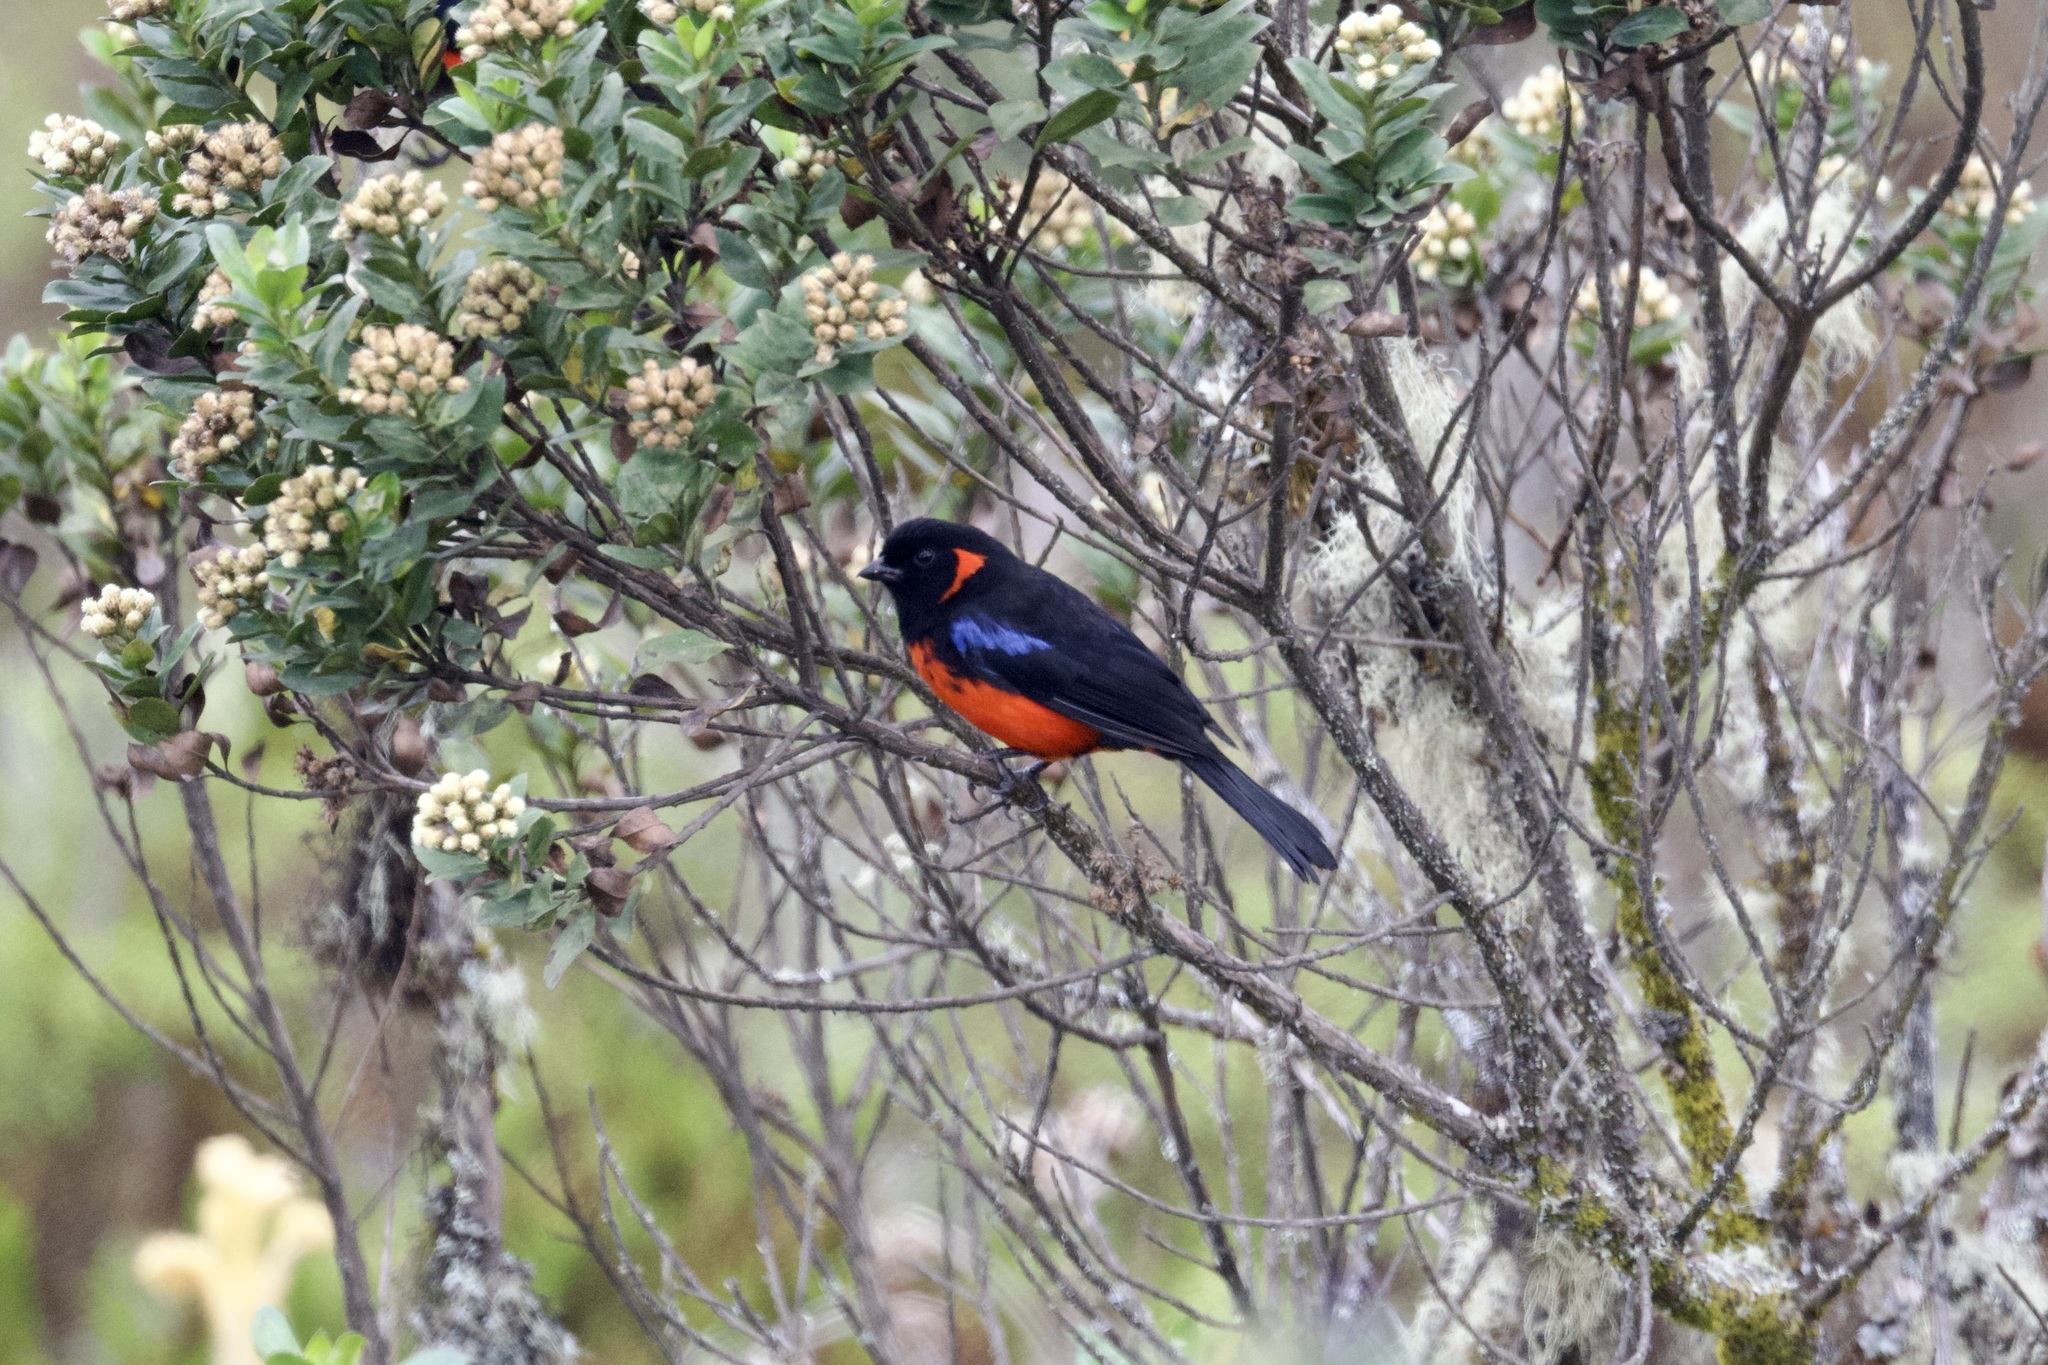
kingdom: Animalia
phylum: Chordata
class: Aves
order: Passeriformes
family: Thraupidae
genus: Anisognathus
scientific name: Anisognathus igniventris
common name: Scarlet-bellied mountain tanager
